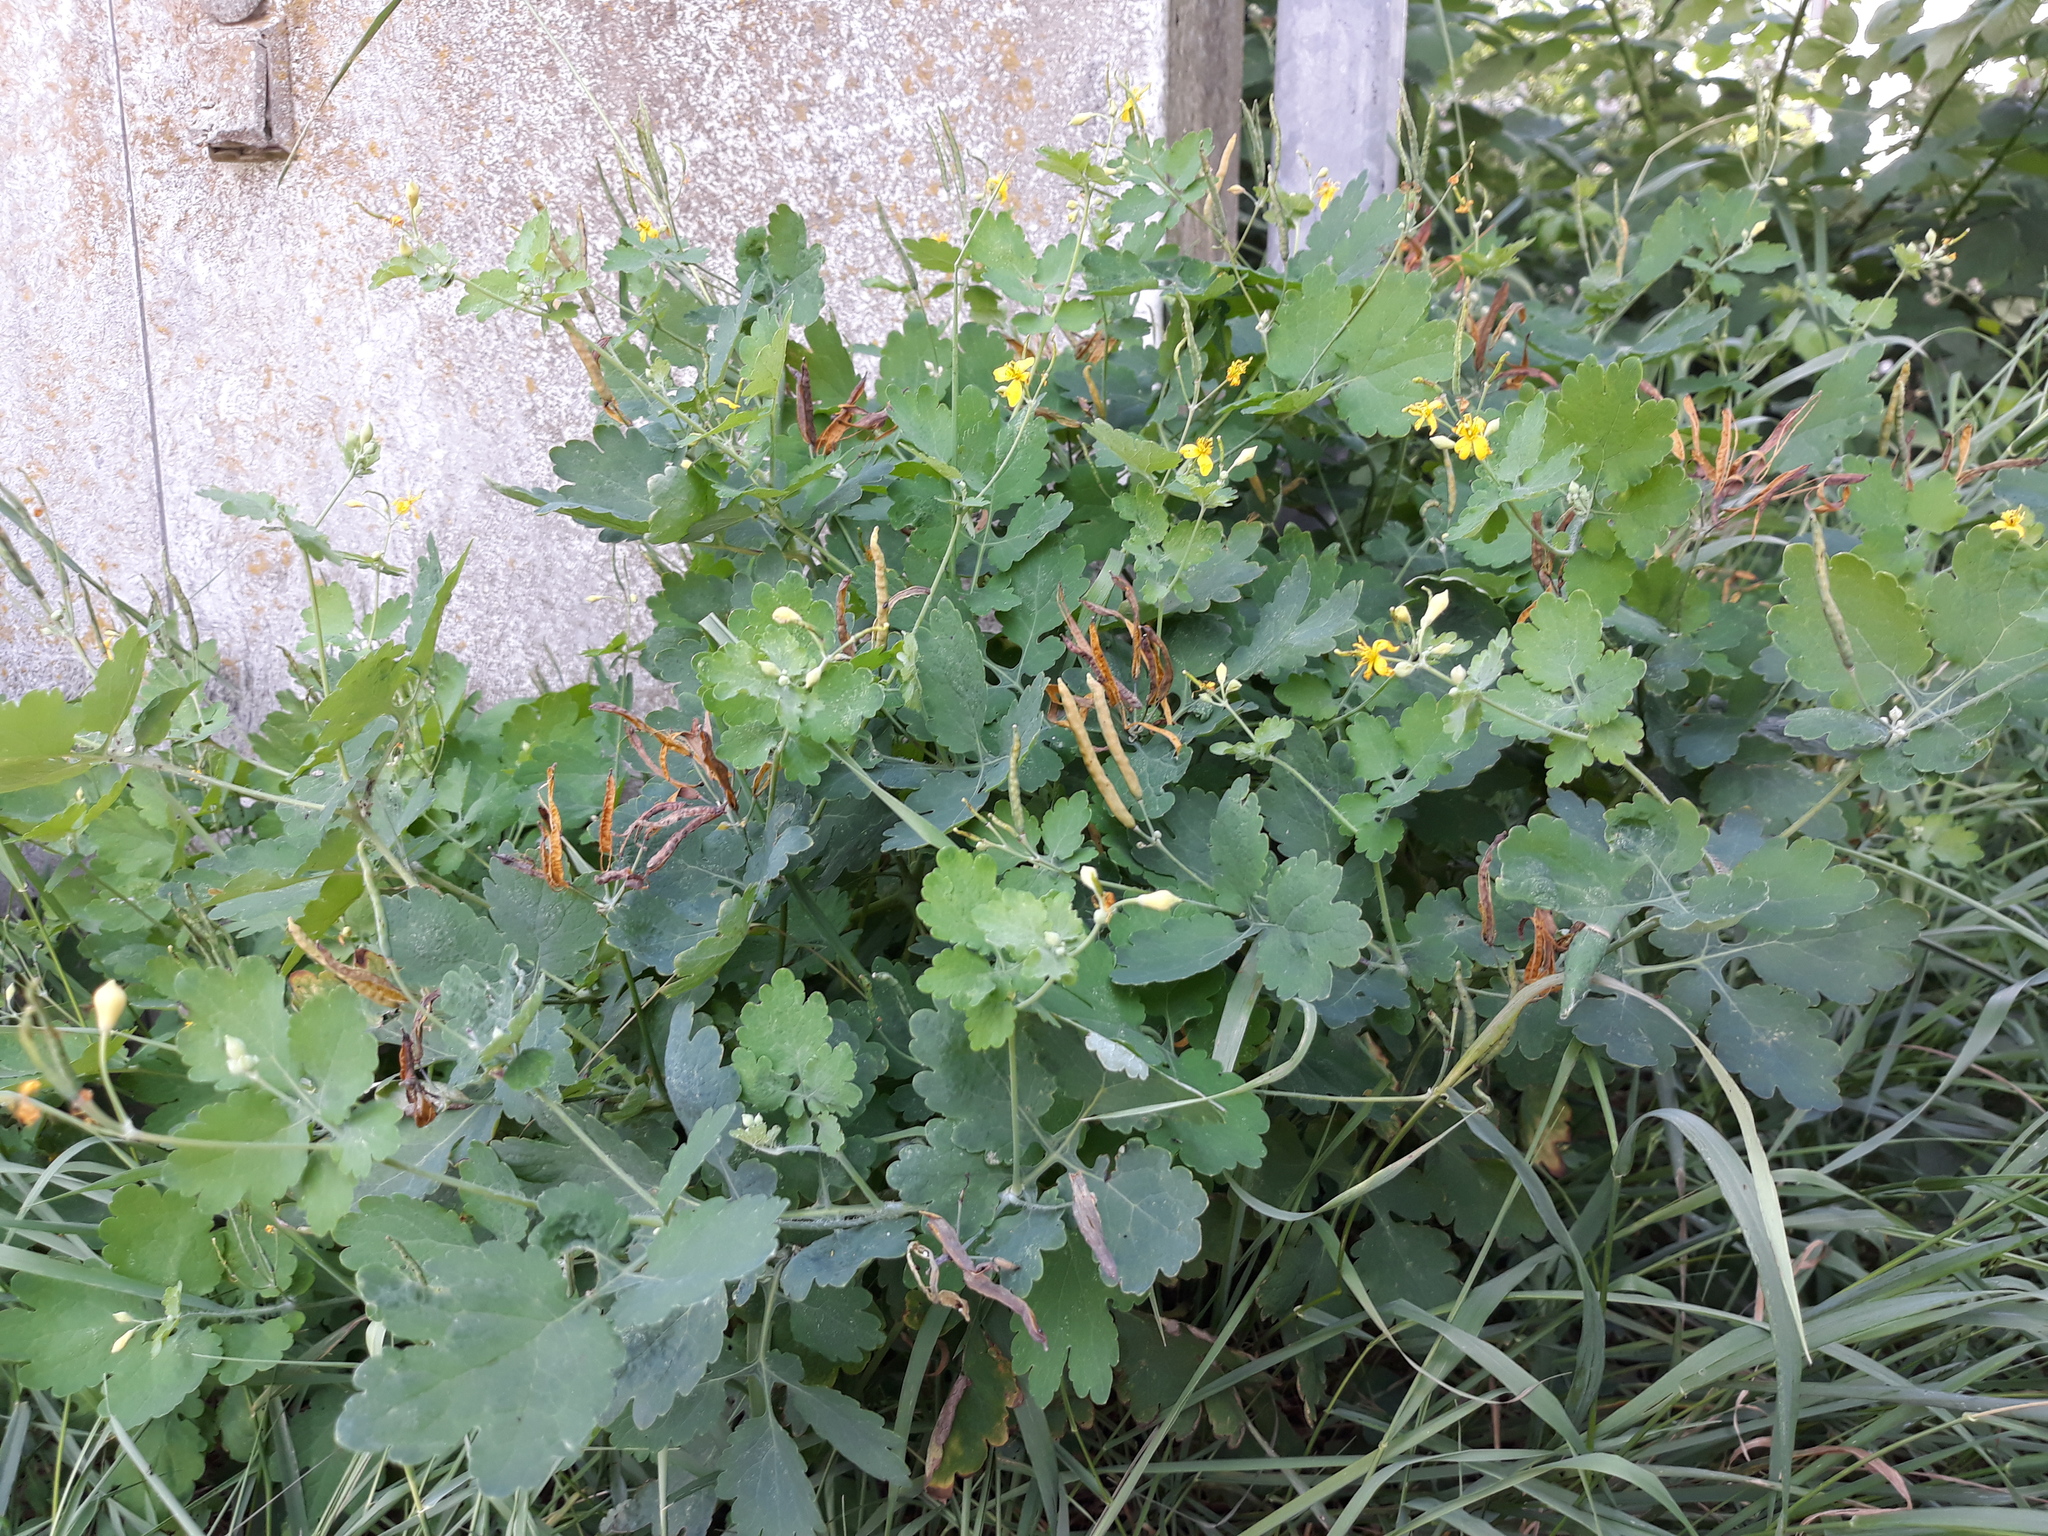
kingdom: Plantae
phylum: Tracheophyta
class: Magnoliopsida
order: Ranunculales
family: Papaveraceae
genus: Chelidonium
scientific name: Chelidonium majus
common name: Greater celandine
